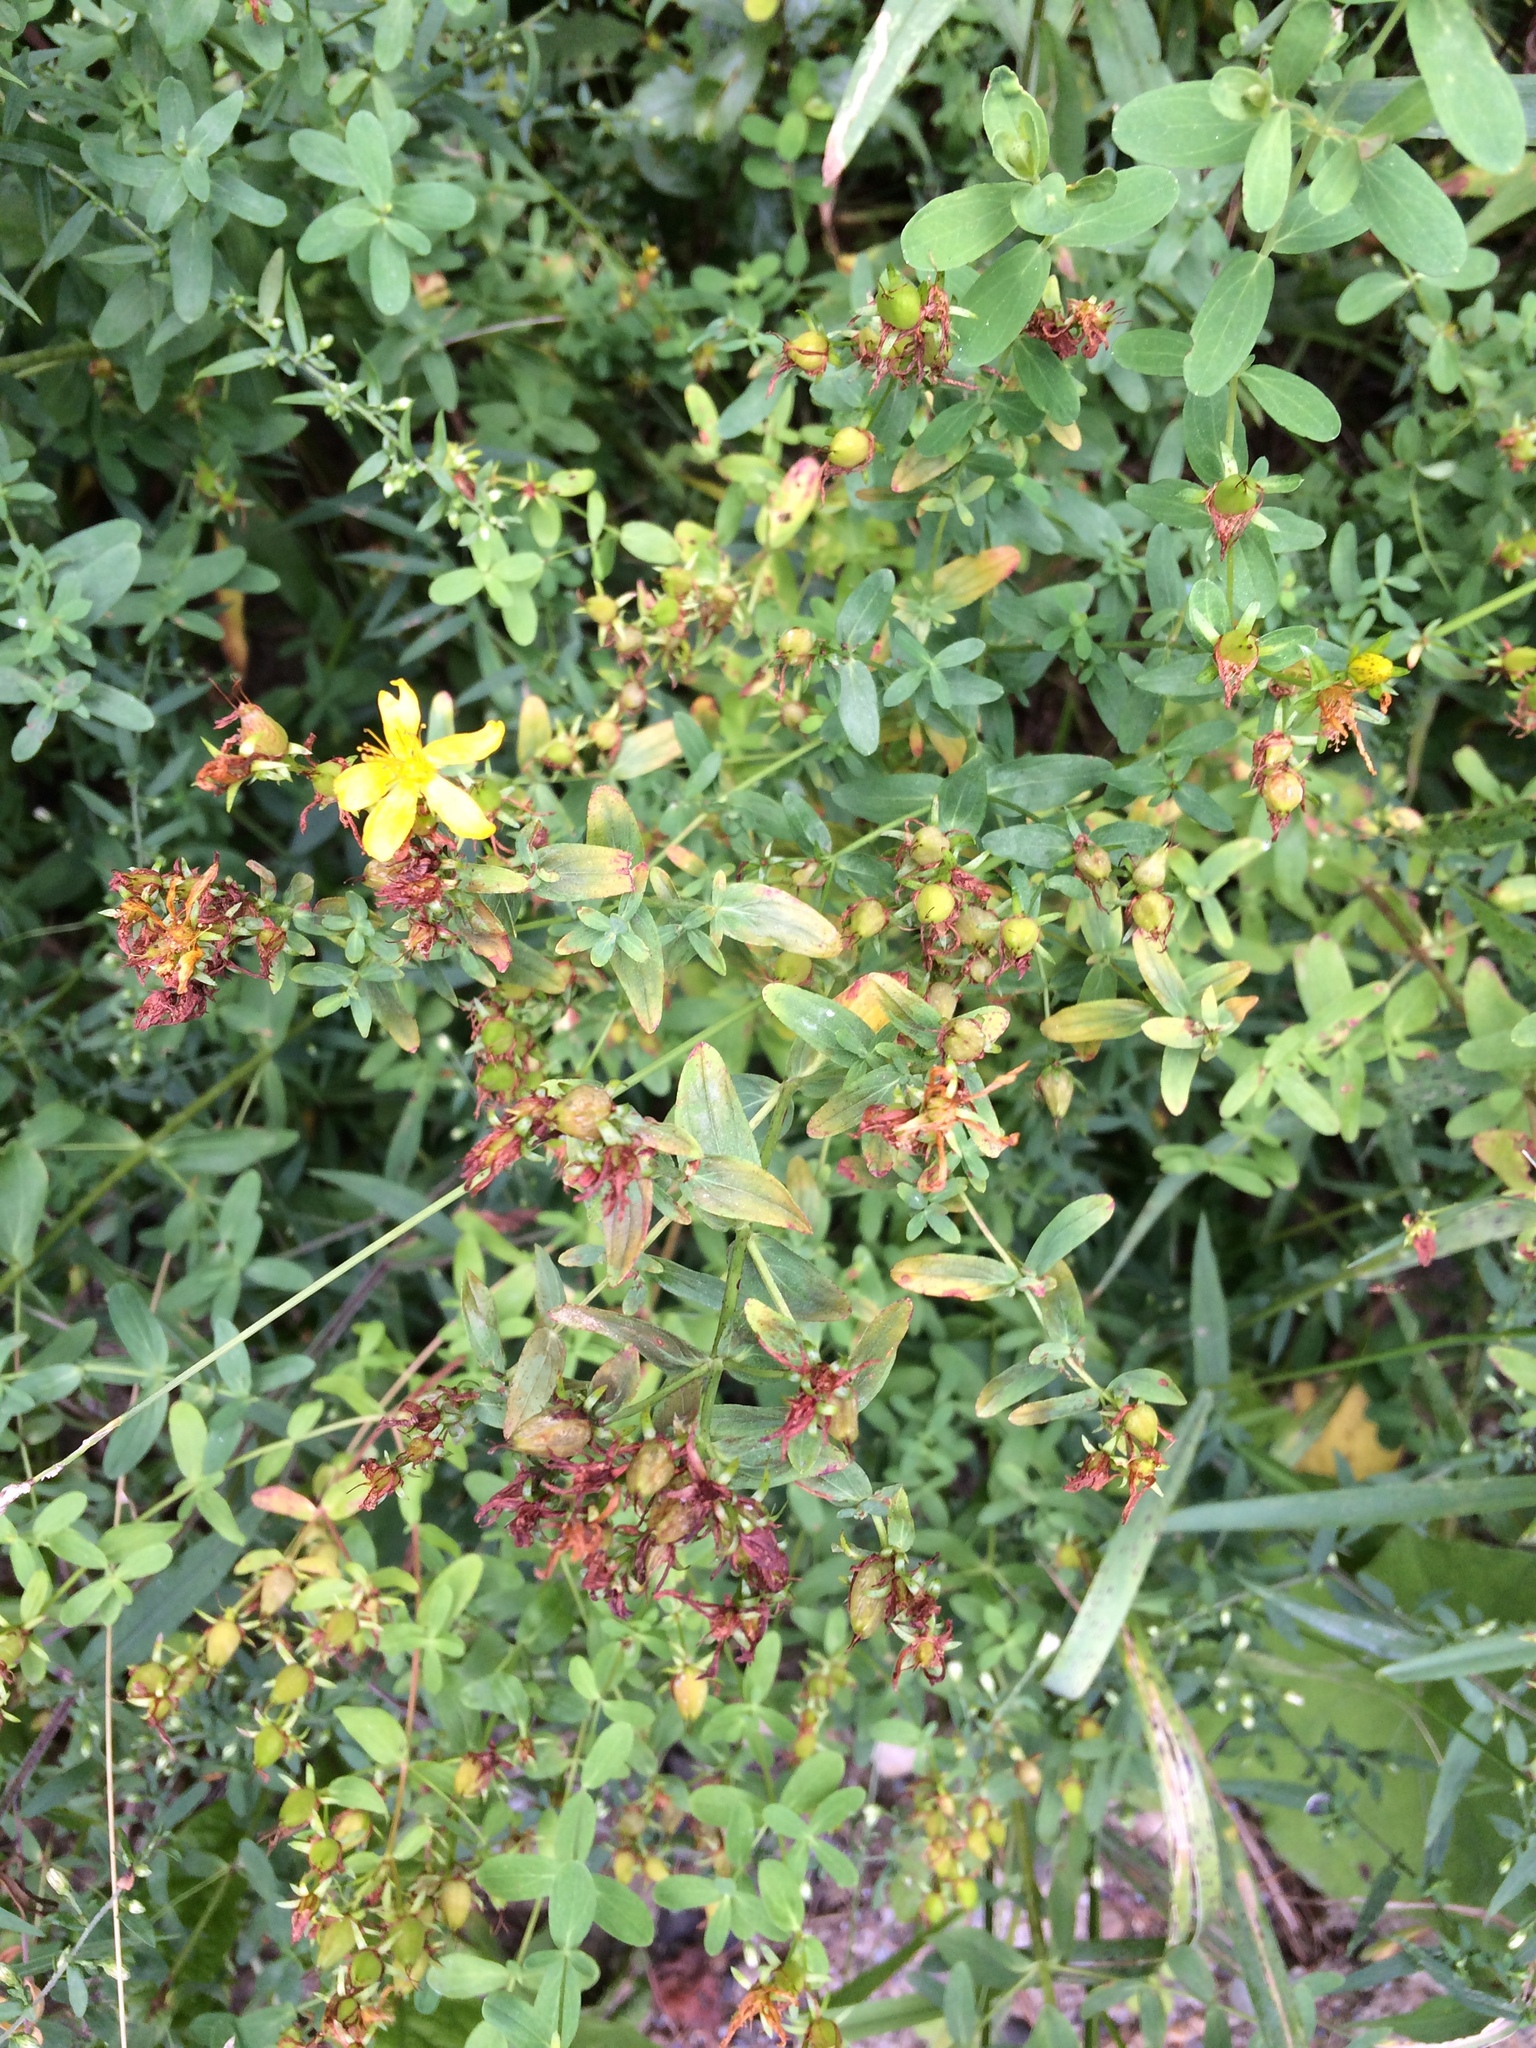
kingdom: Plantae
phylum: Tracheophyta
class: Magnoliopsida
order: Malpighiales
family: Hypericaceae
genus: Hypericum
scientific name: Hypericum perforatum
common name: Common st. johnswort
